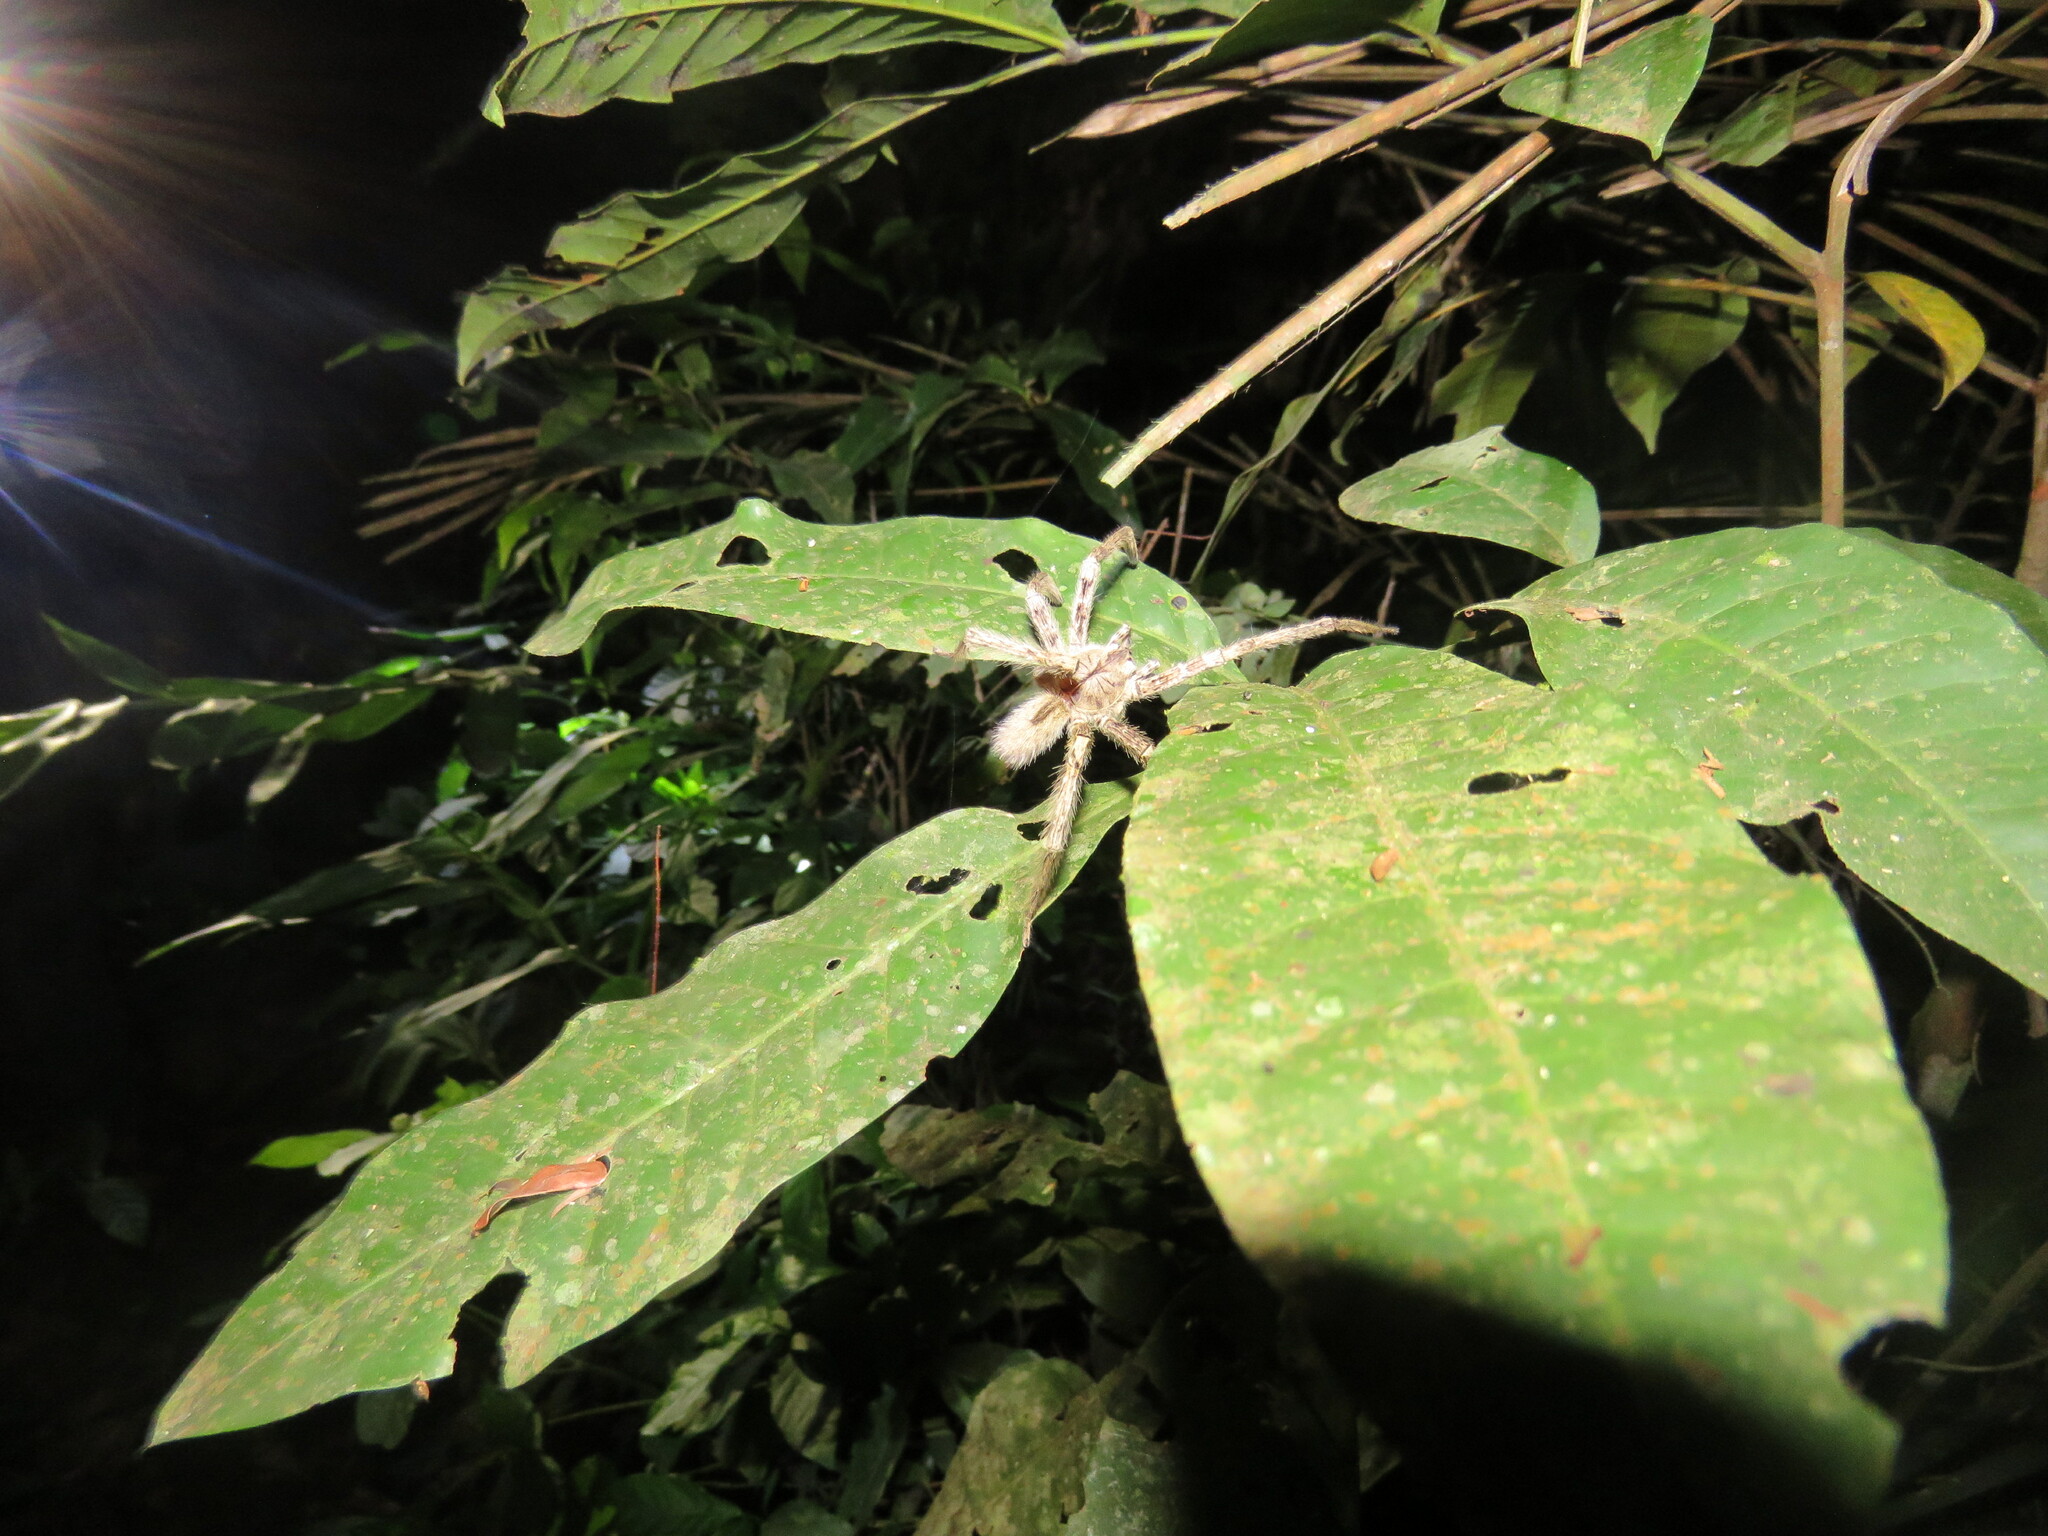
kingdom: Animalia
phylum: Arthropoda
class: Arachnida
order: Araneae
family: Ctenidae
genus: Phoneutria
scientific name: Phoneutria boliviensis
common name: Wandering spiders
